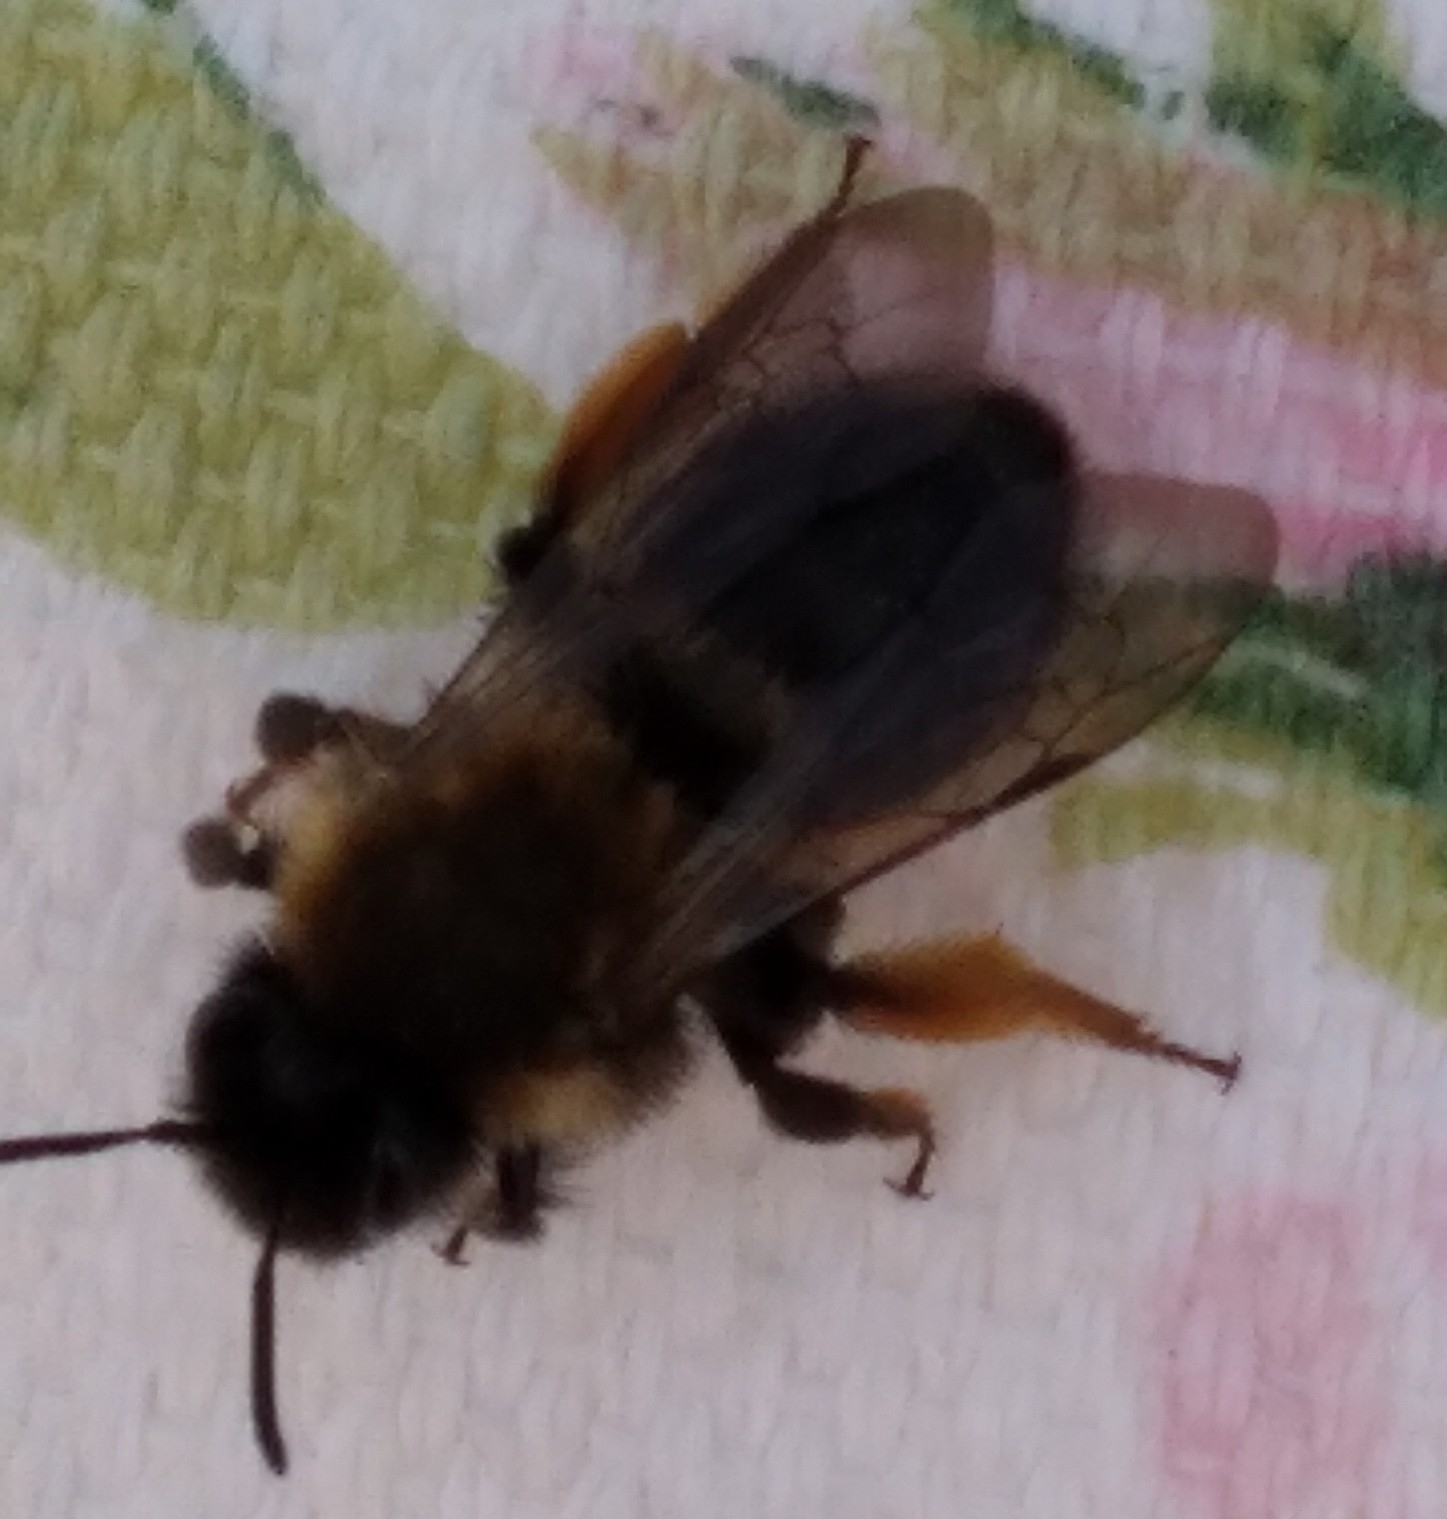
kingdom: Animalia
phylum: Arthropoda
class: Insecta
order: Hymenoptera
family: Andrenidae
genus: Andrena
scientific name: Andrena clarkella
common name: Clarke's mining bee
